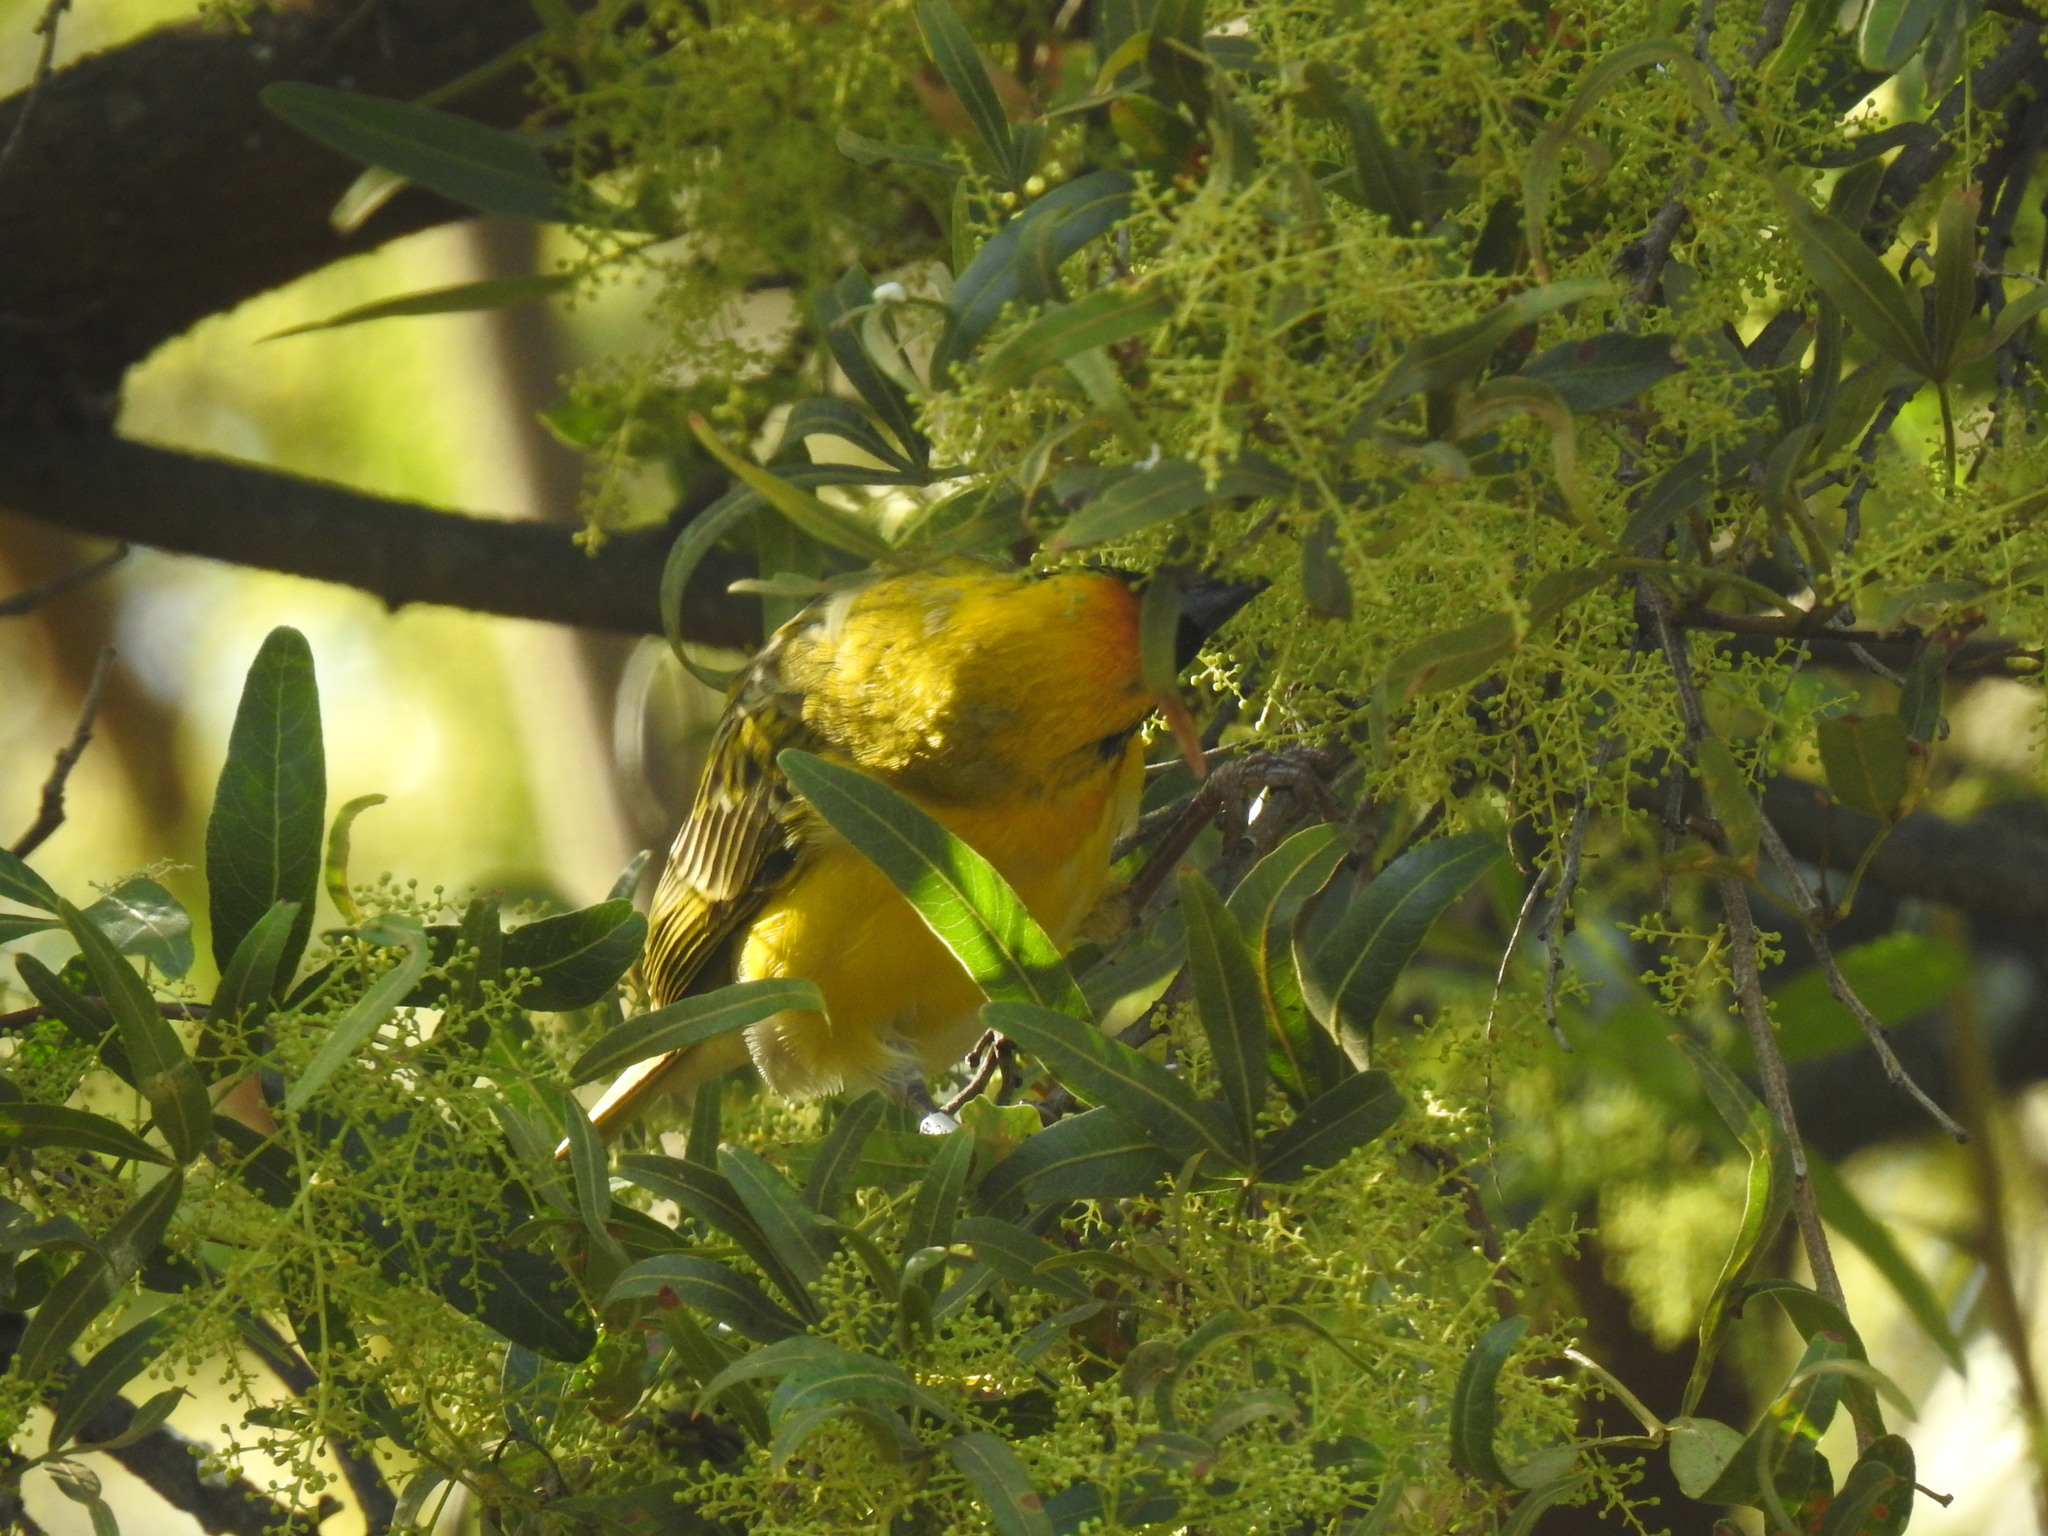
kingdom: Animalia
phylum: Chordata
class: Aves
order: Passeriformes
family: Ploceidae
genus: Ploceus
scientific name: Ploceus velatus
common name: Southern masked weaver
